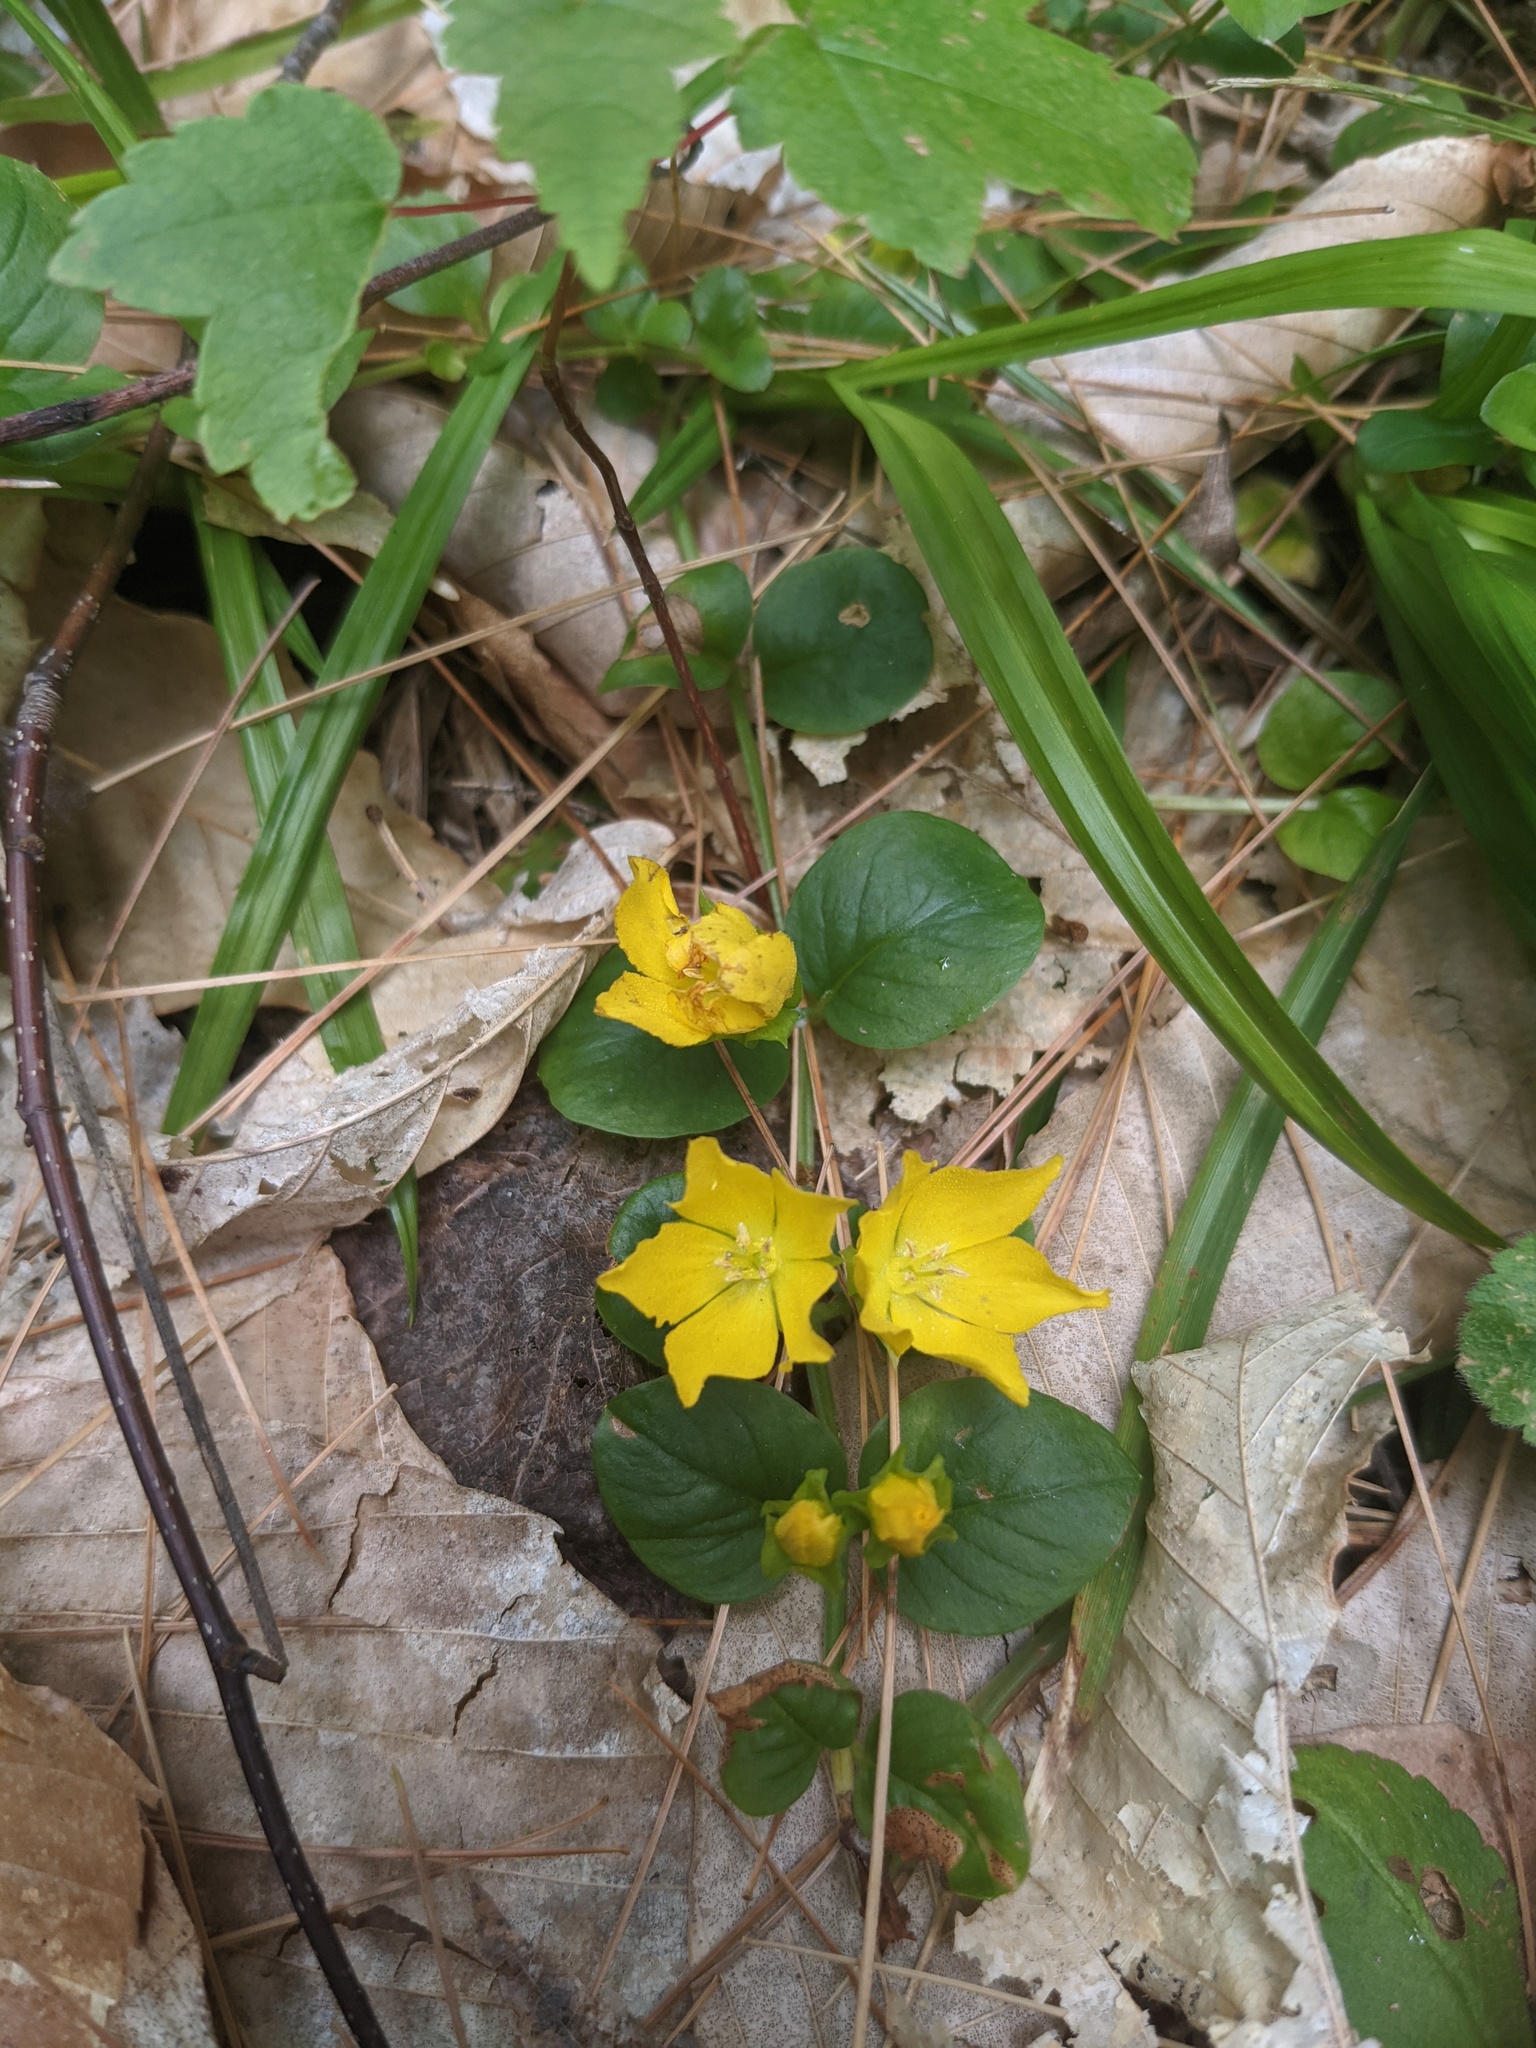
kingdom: Plantae
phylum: Tracheophyta
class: Magnoliopsida
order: Ericales
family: Primulaceae
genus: Lysimachia
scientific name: Lysimachia nummularia
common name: Moneywort
